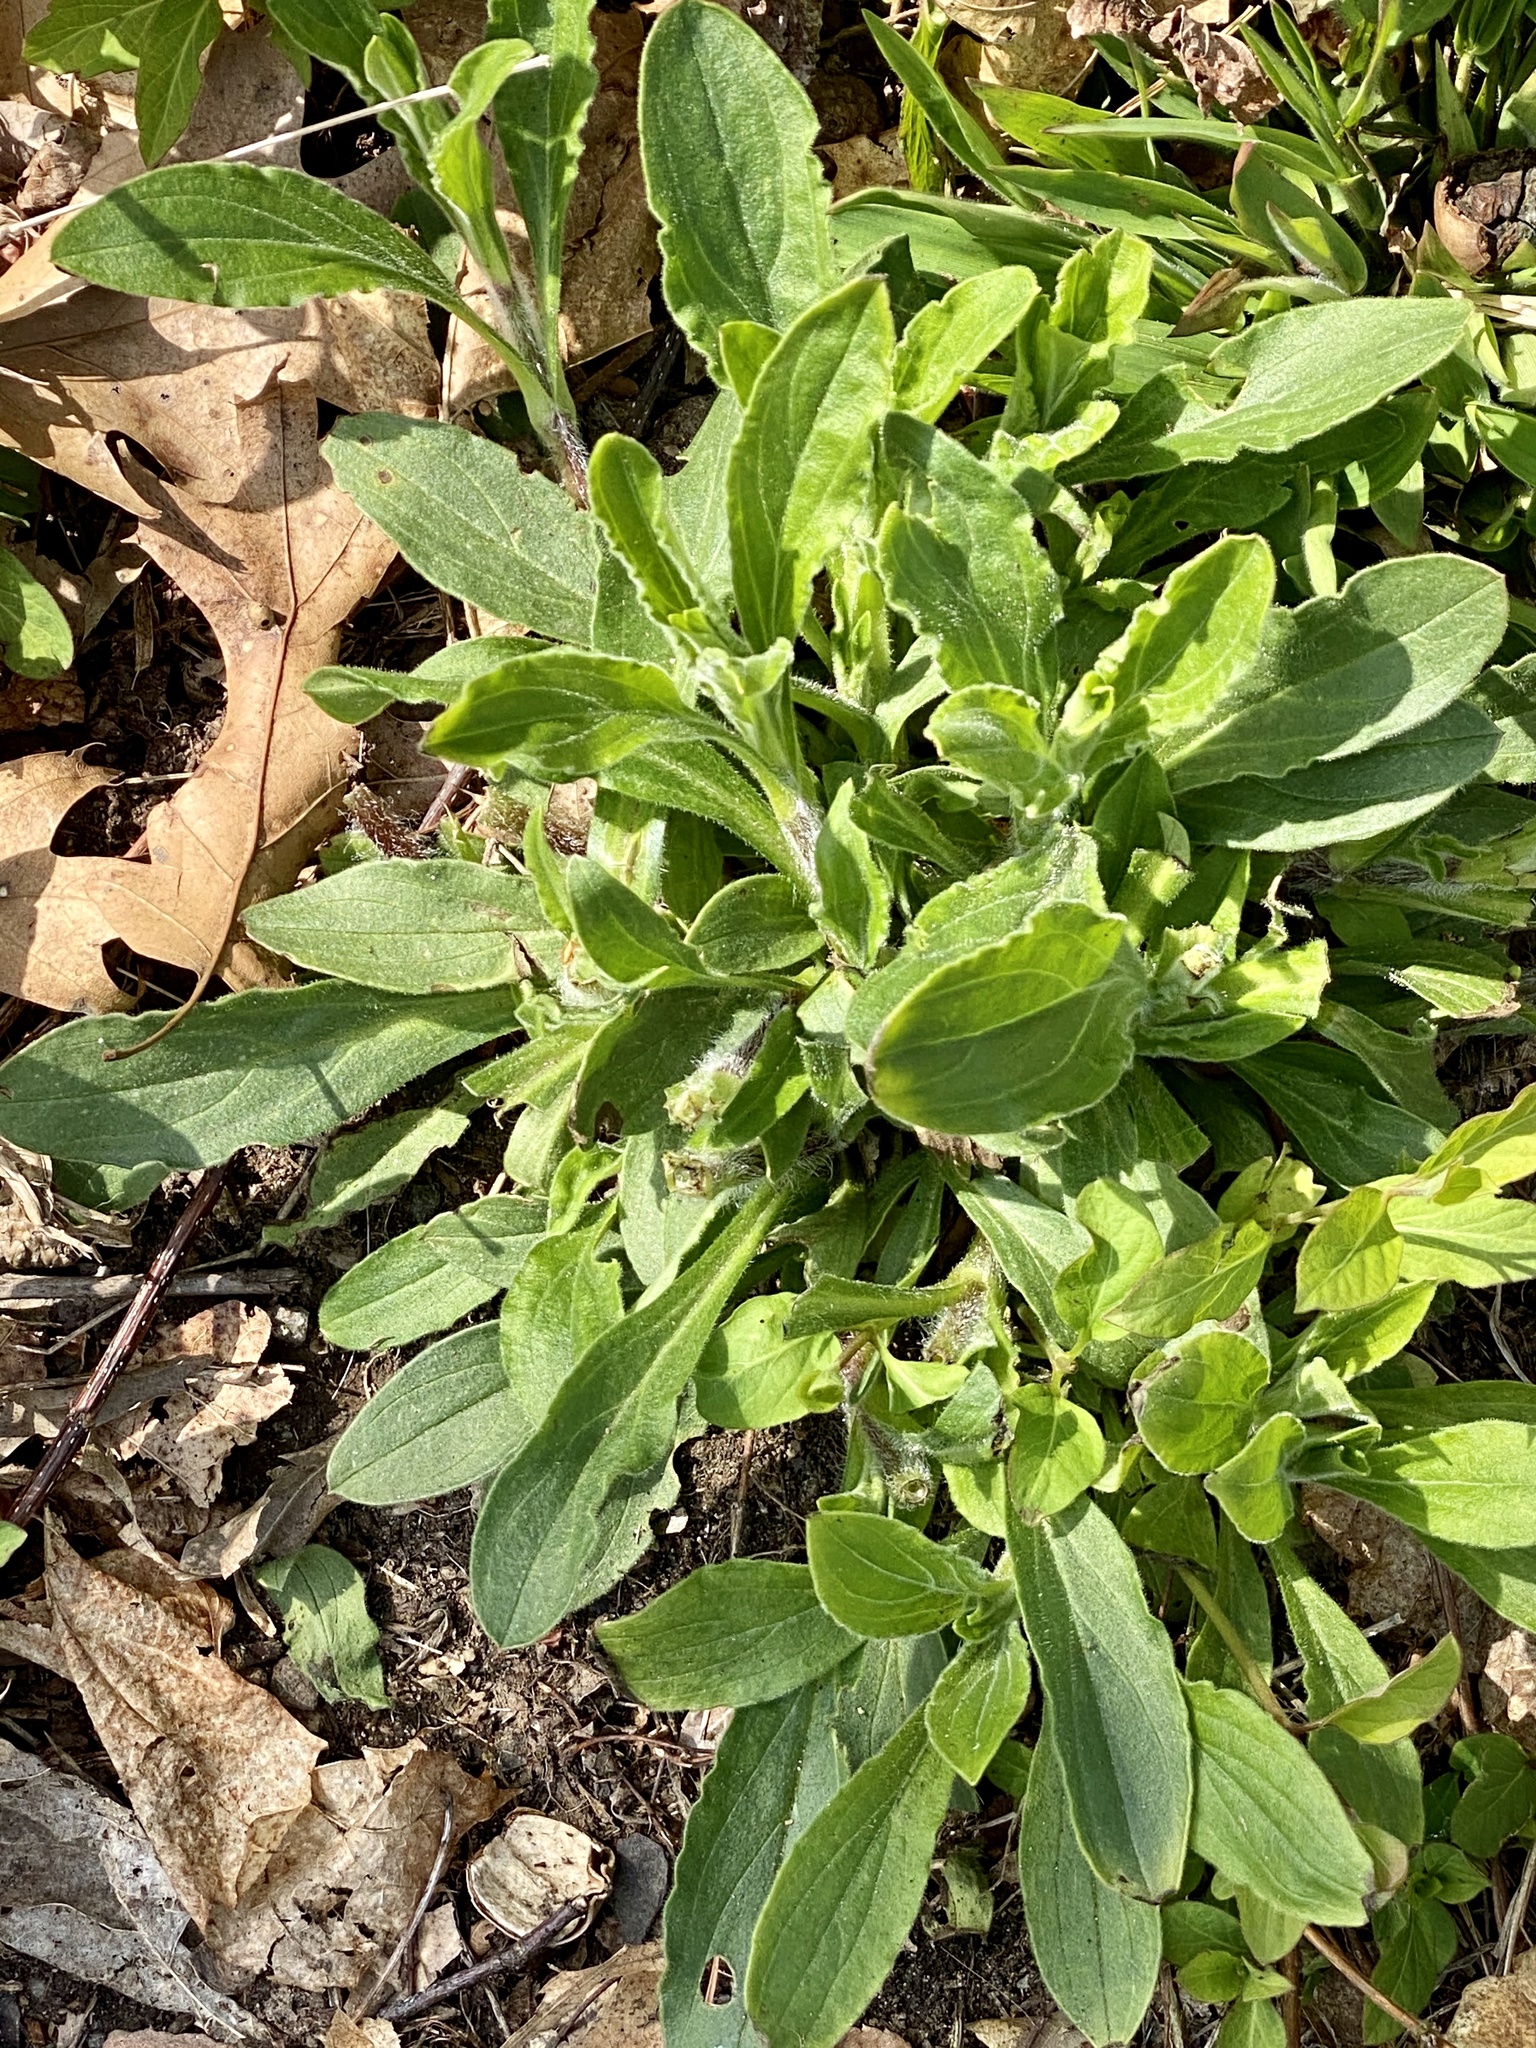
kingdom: Plantae
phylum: Tracheophyta
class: Magnoliopsida
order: Caryophyllales
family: Caryophyllaceae
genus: Silene
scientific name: Silene latifolia
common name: White campion
